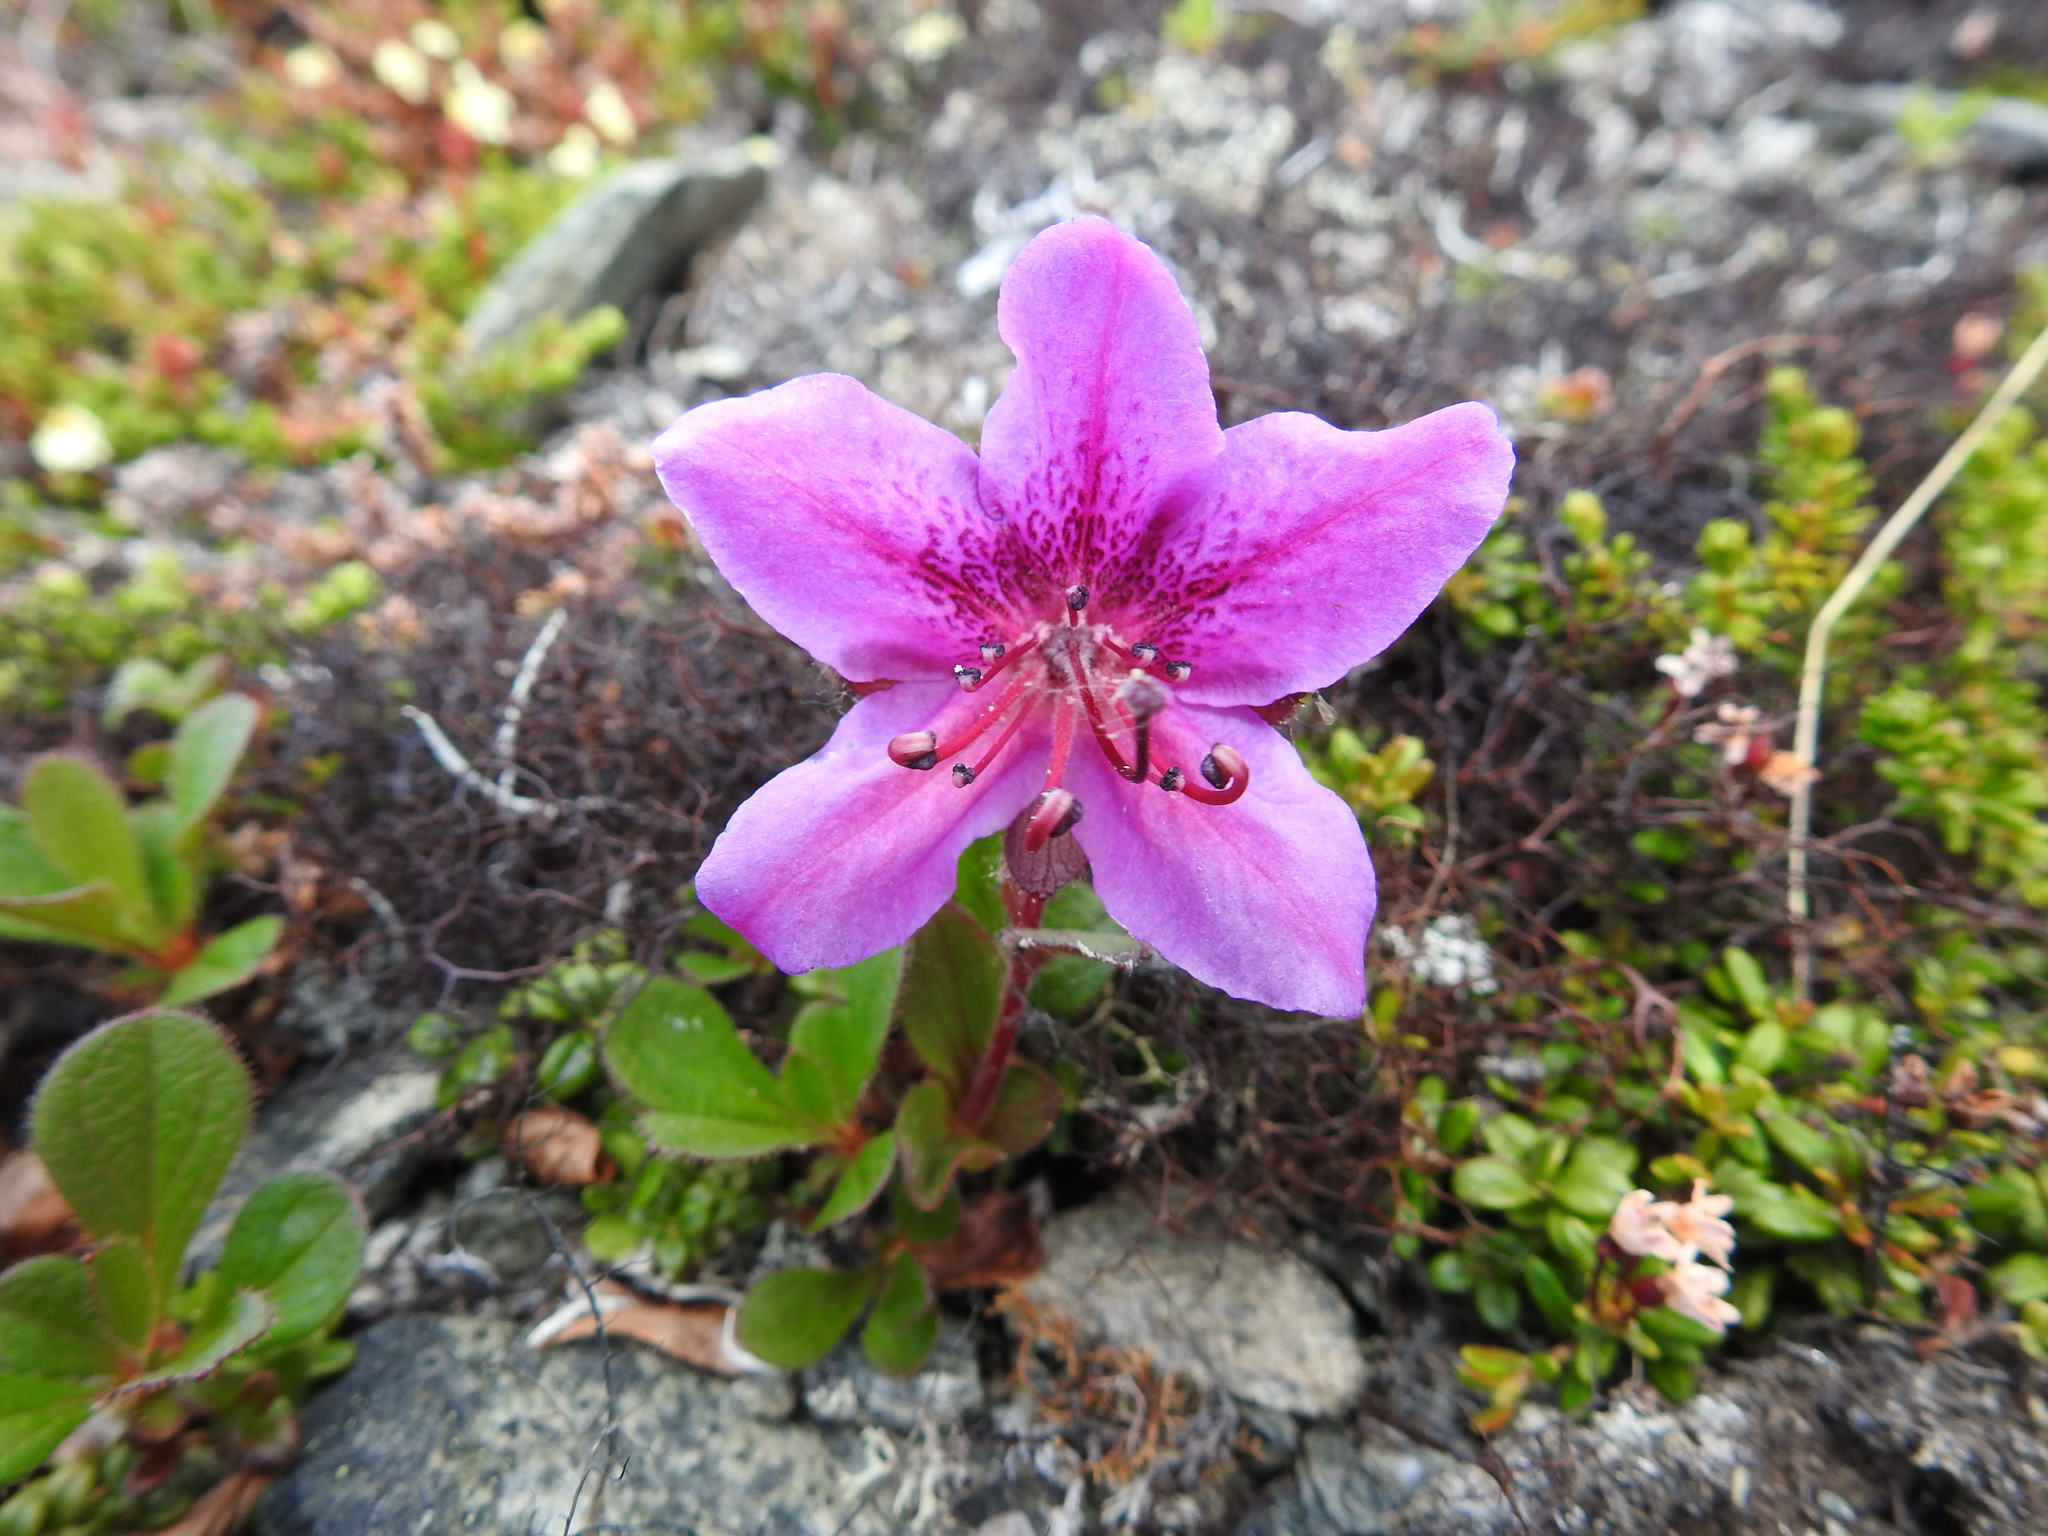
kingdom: Plantae
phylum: Tracheophyta
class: Magnoliopsida
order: Ericales
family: Ericaceae
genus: Rhododendron
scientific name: Rhododendron glandulosum
